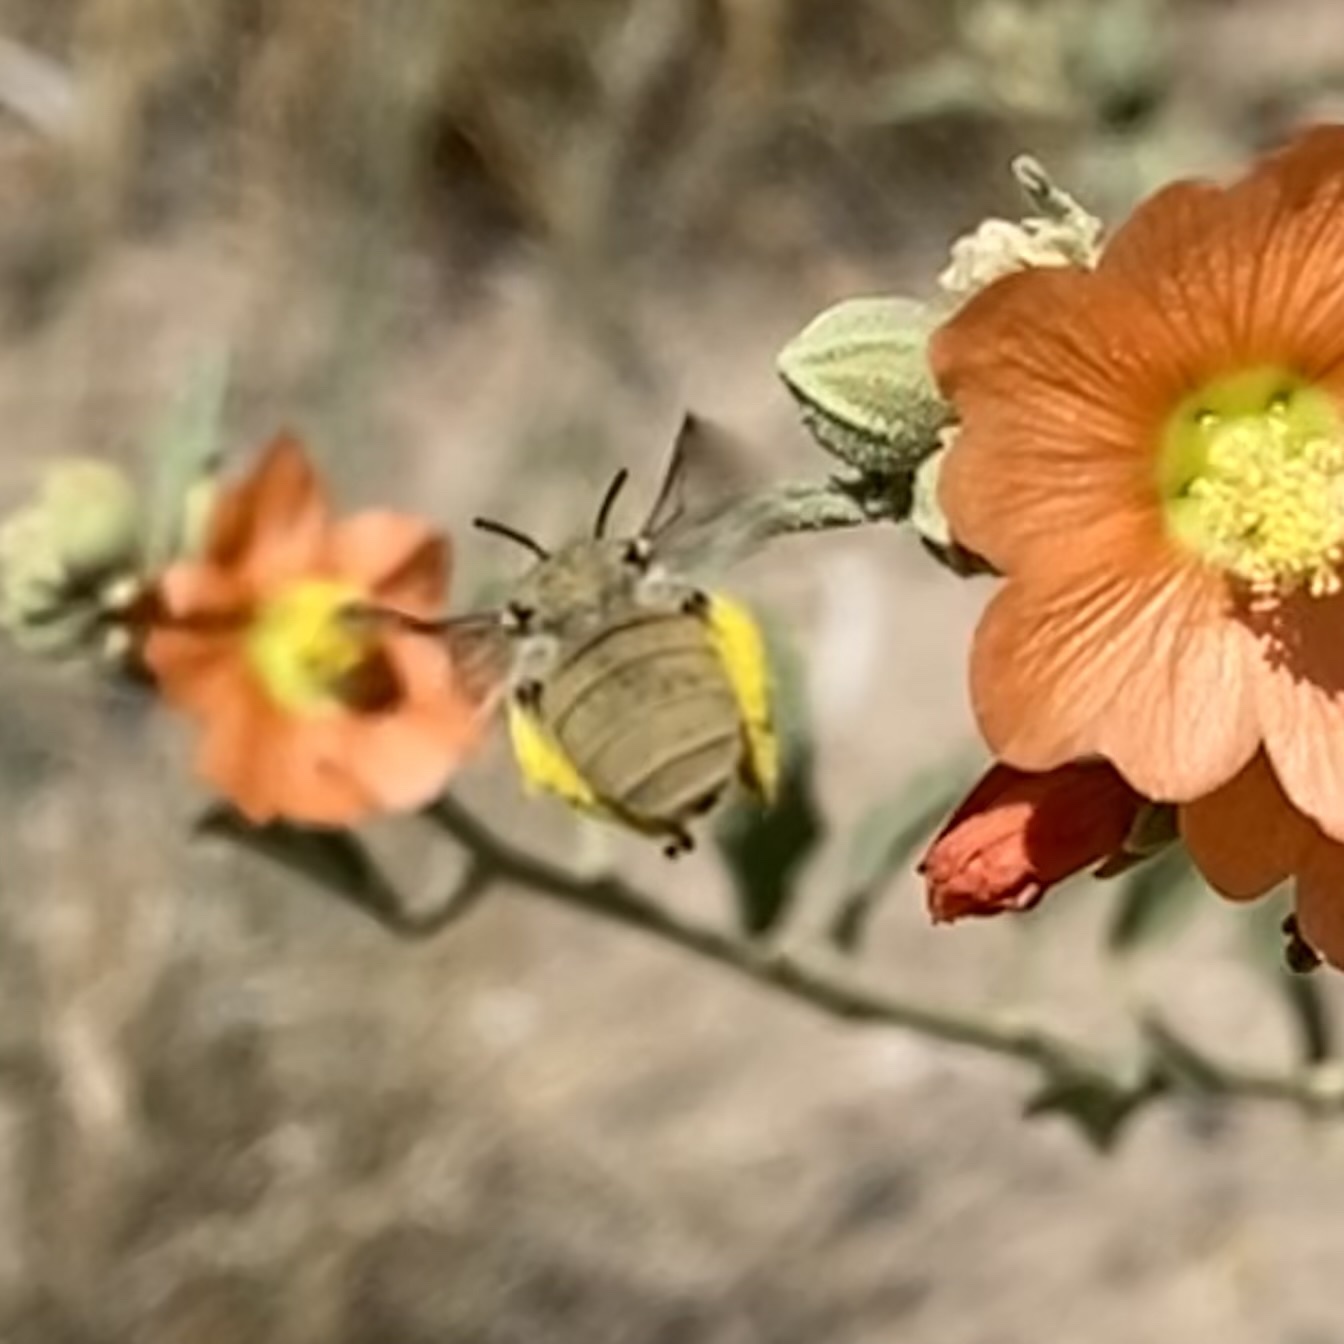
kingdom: Animalia
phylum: Arthropoda
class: Insecta
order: Hymenoptera
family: Apidae
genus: Diadasia
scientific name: Diadasia ochracea
